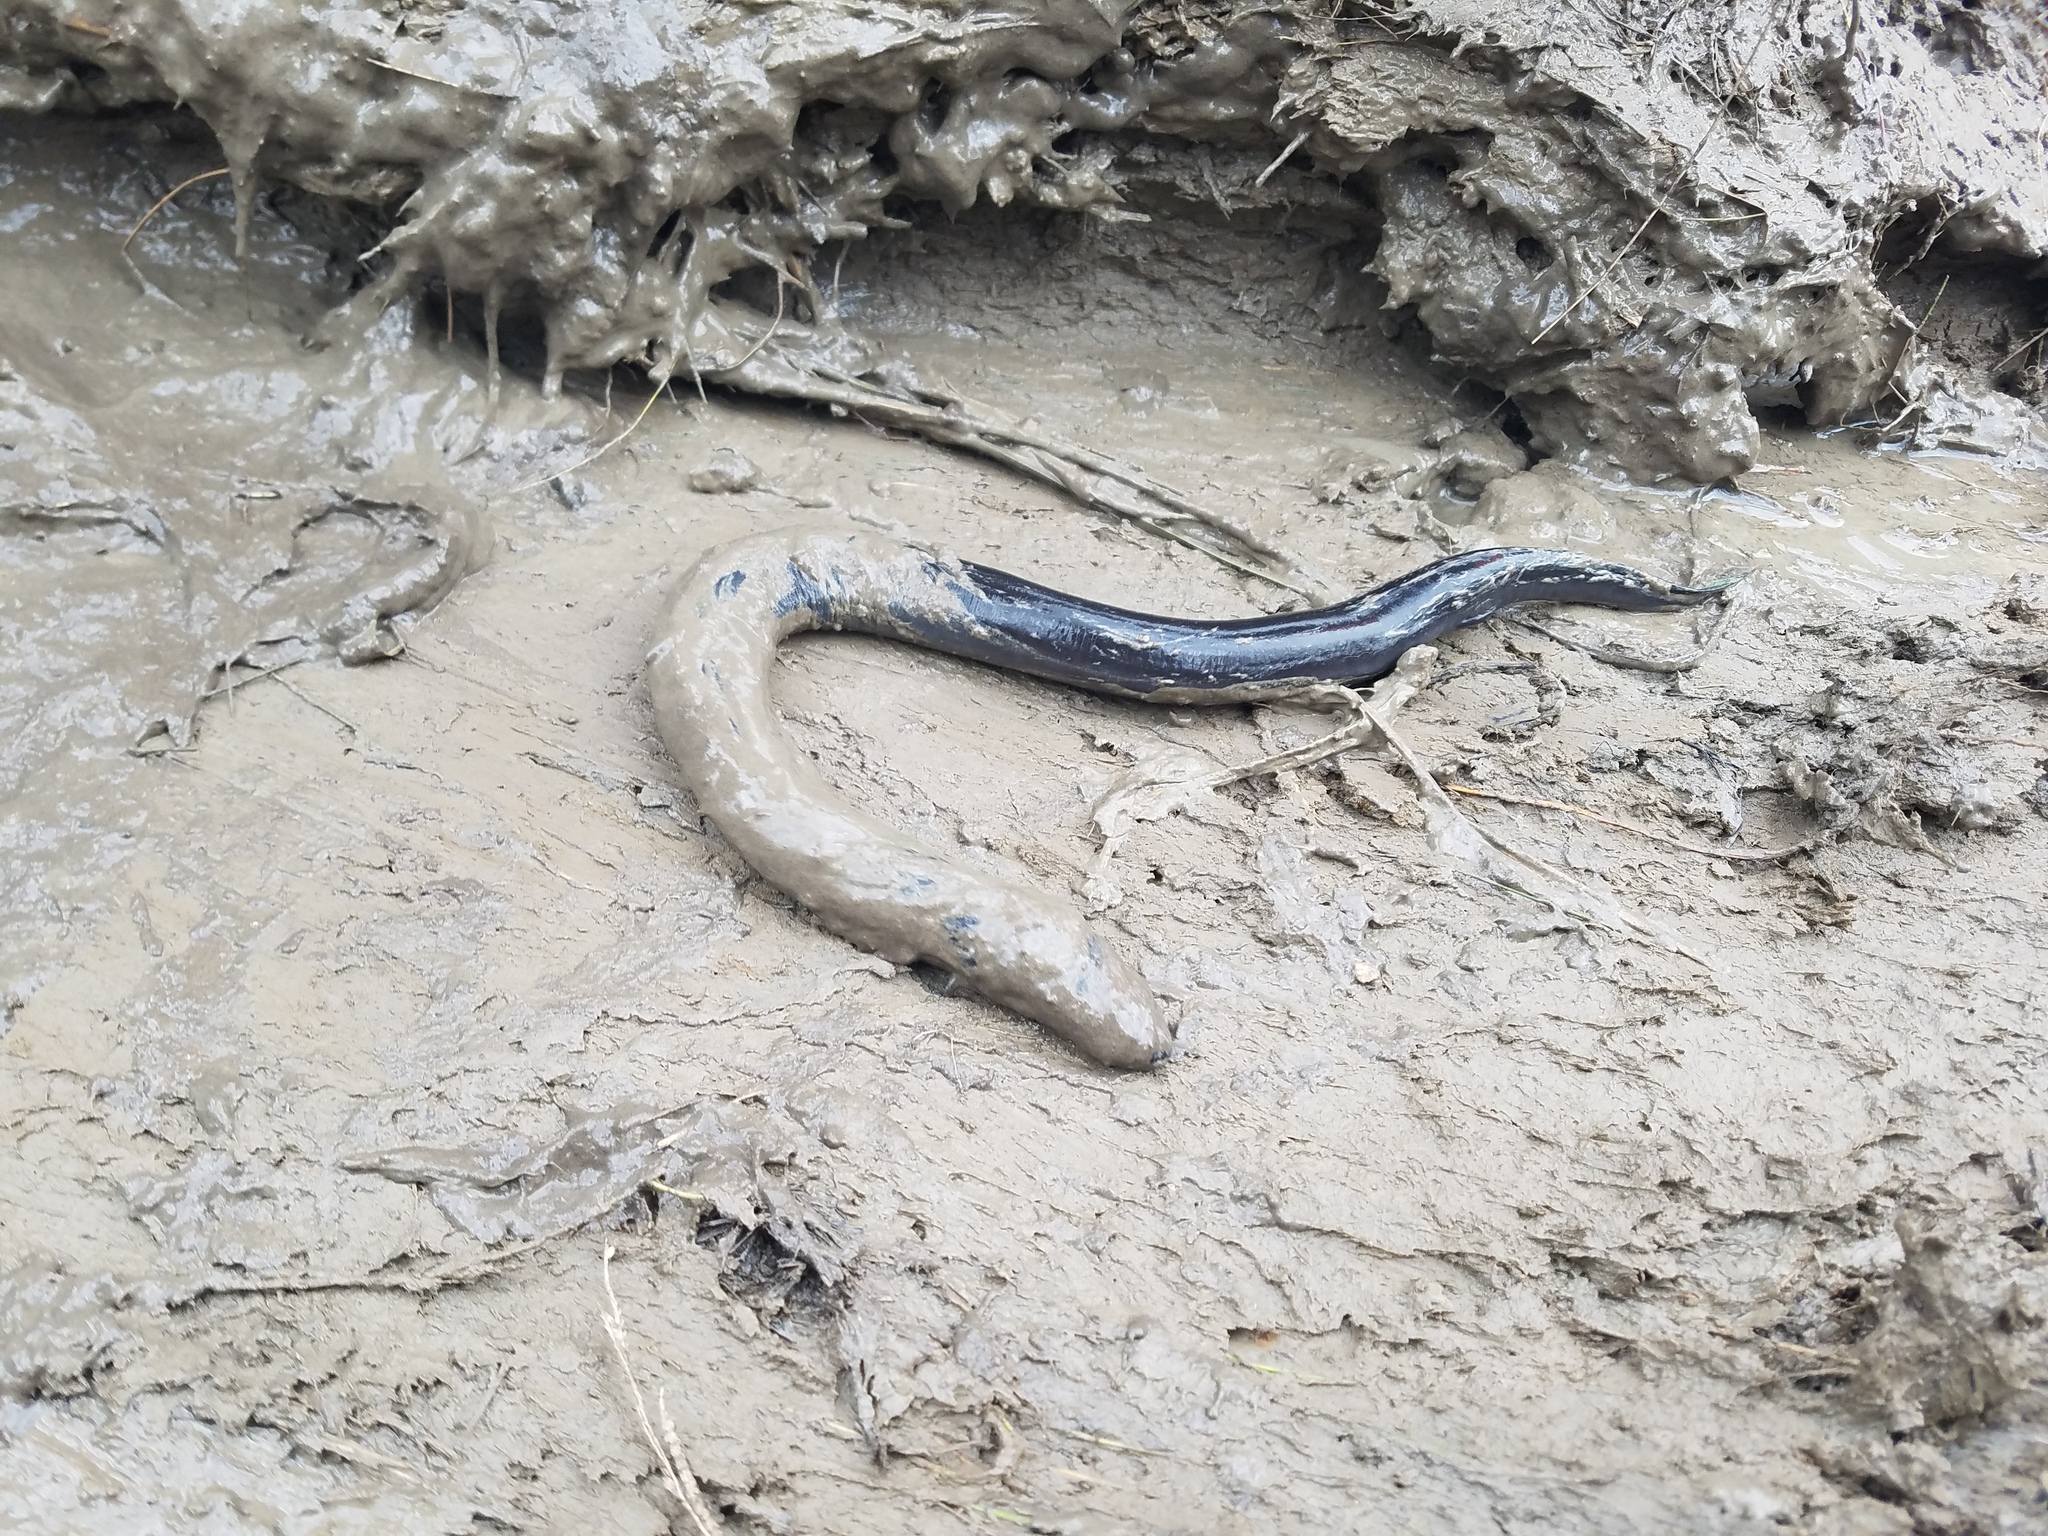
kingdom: Animalia
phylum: Chordata
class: Amphibia
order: Caudata
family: Amphiumidae
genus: Amphiuma
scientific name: Amphiuma tridactylum
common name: Three-toed amphiuma
